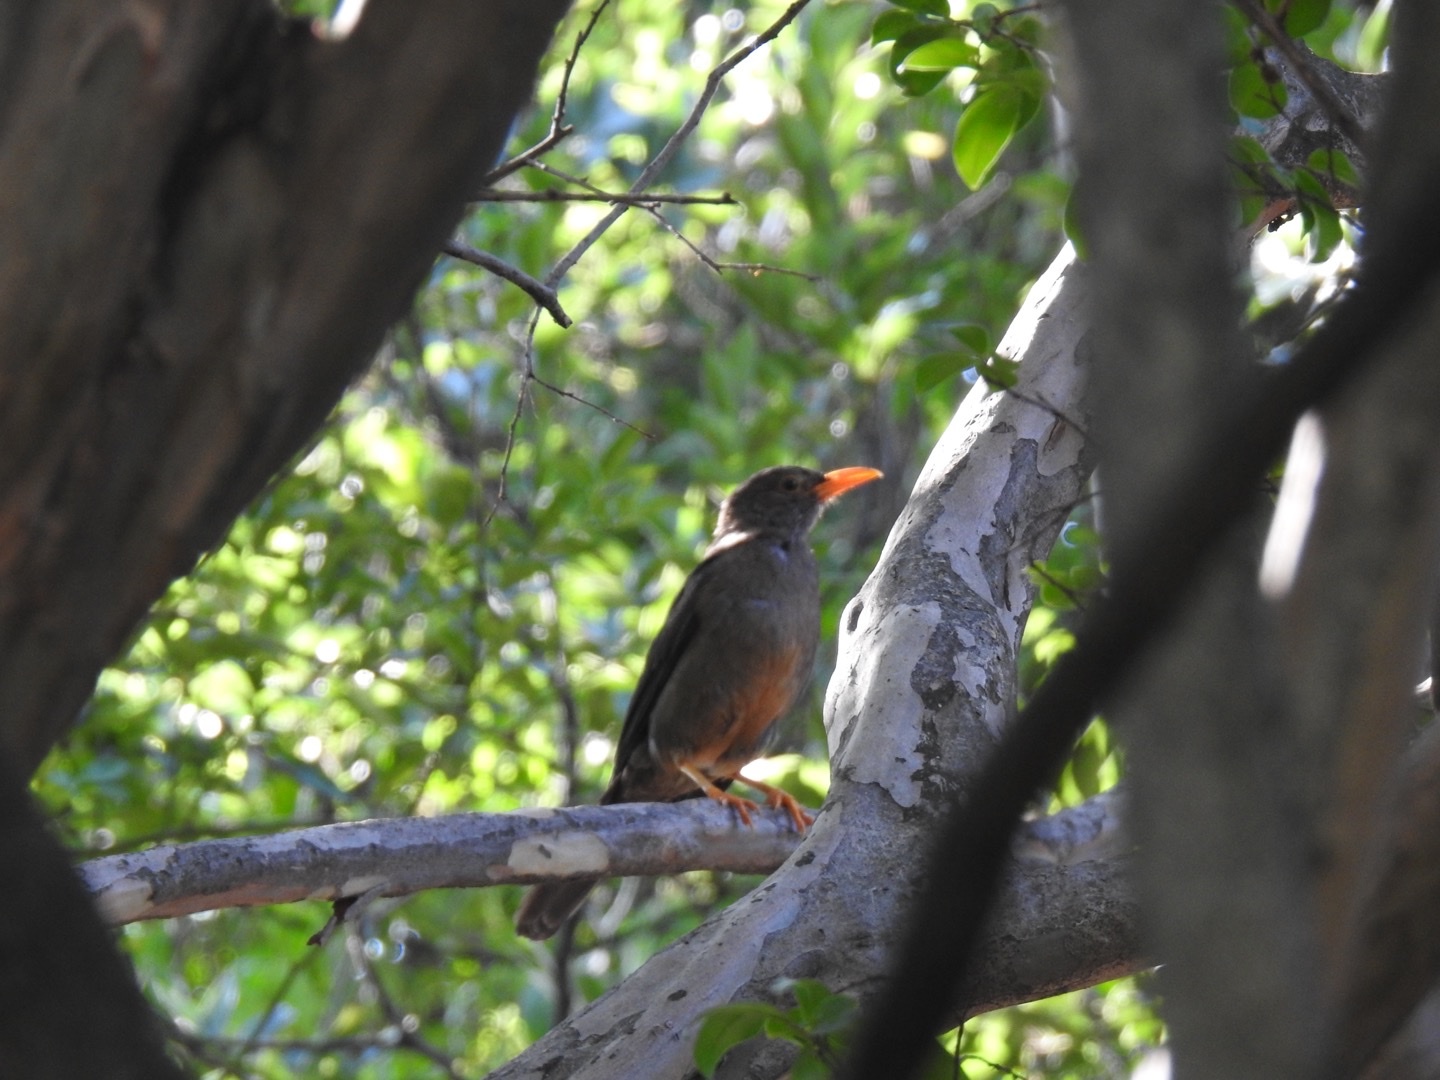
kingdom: Animalia
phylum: Chordata
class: Aves
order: Passeriformes
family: Turdidae
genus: Turdus
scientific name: Turdus smithi
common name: Karoo thrush
